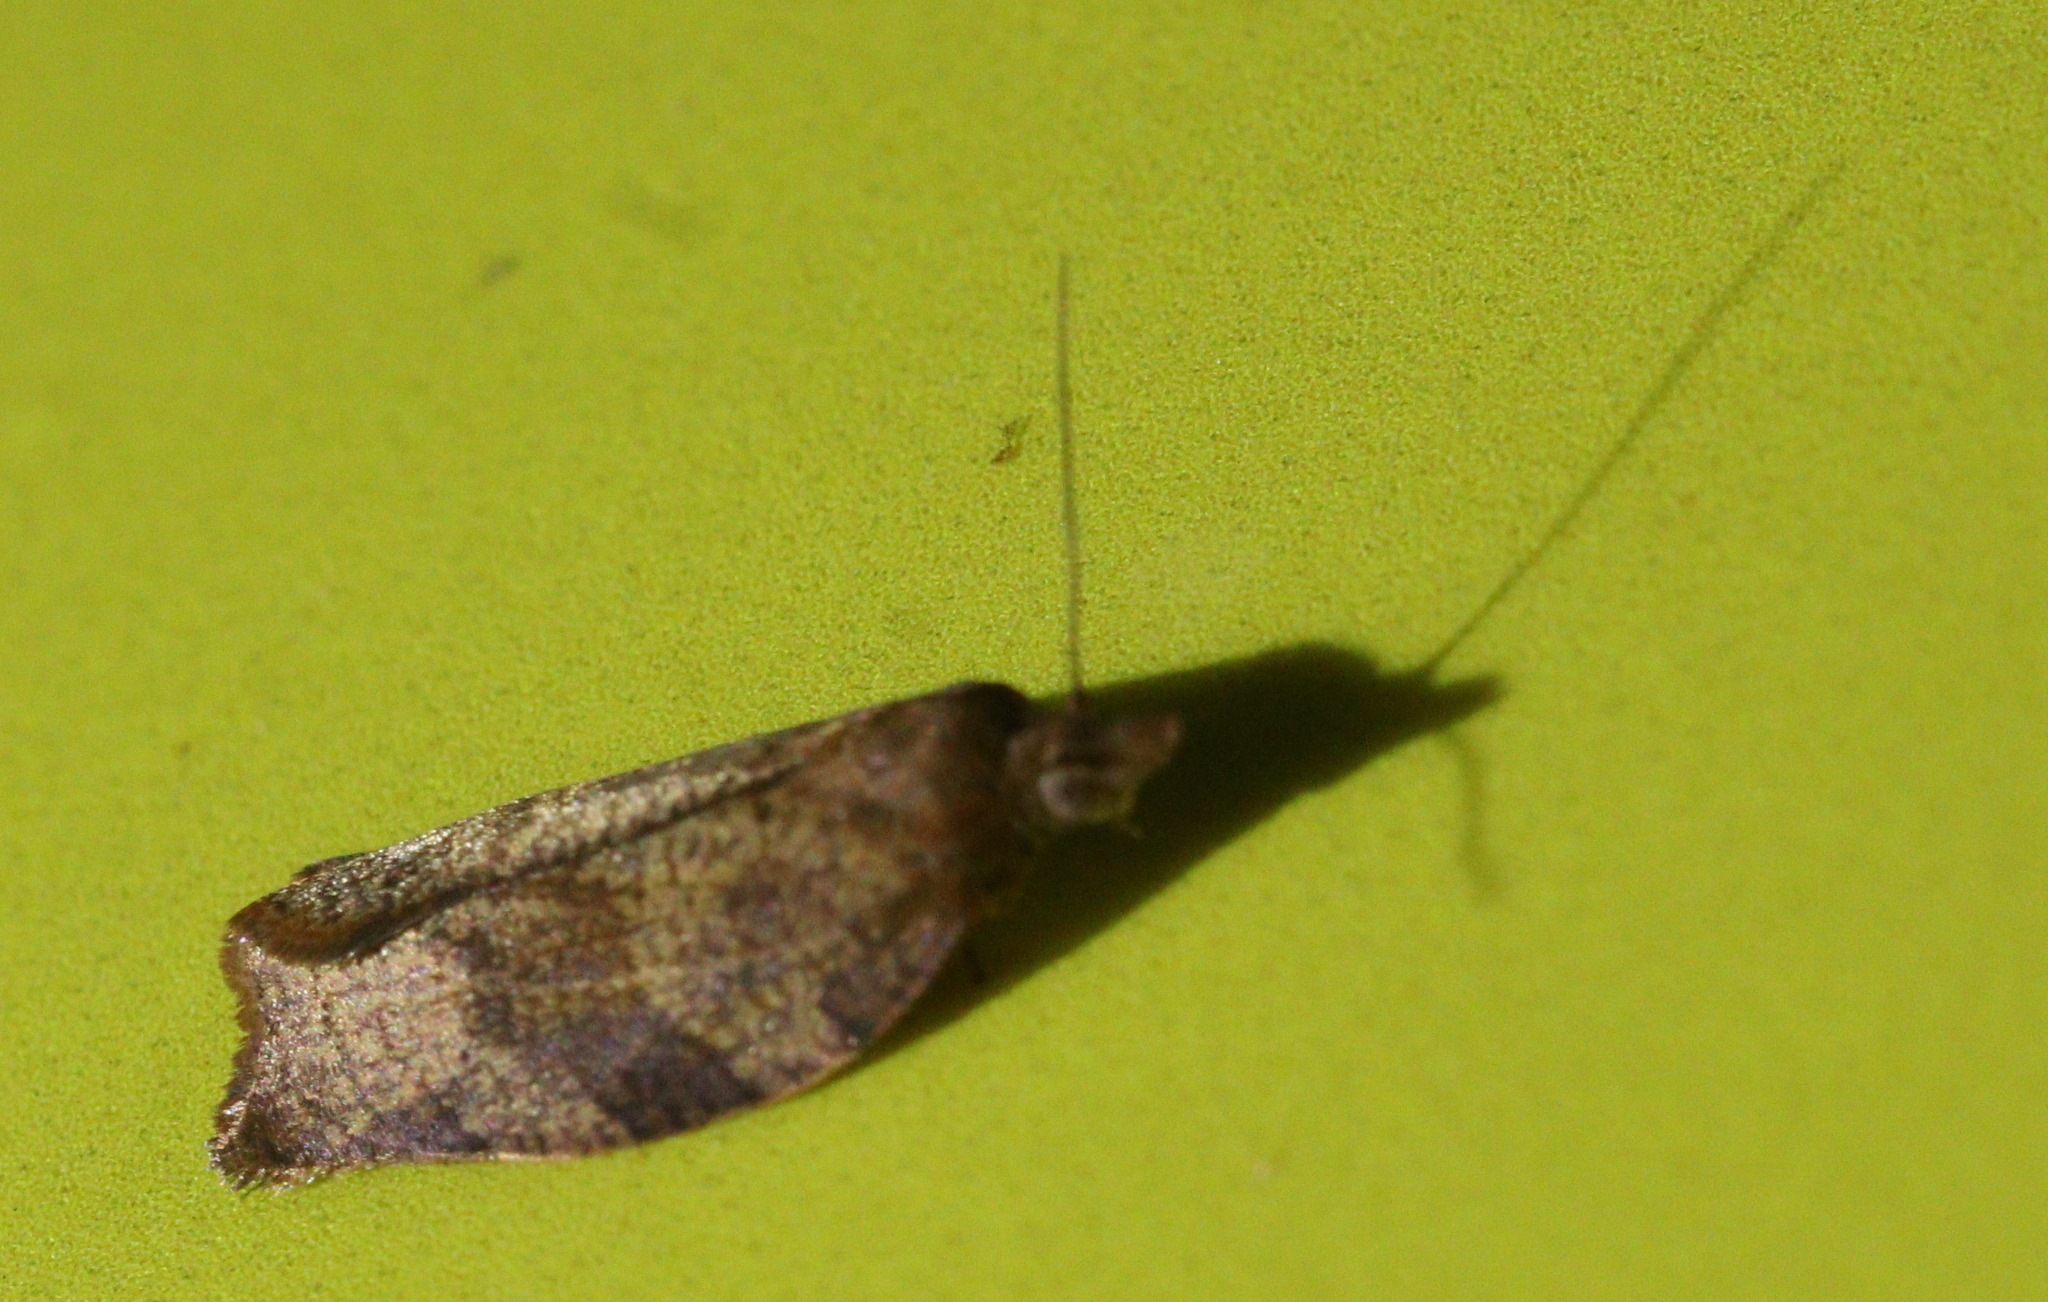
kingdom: Animalia
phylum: Arthropoda
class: Insecta
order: Lepidoptera
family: Tortricidae
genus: Pandemis
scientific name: Pandemis heparana
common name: Dark fruit-tree tortrix
